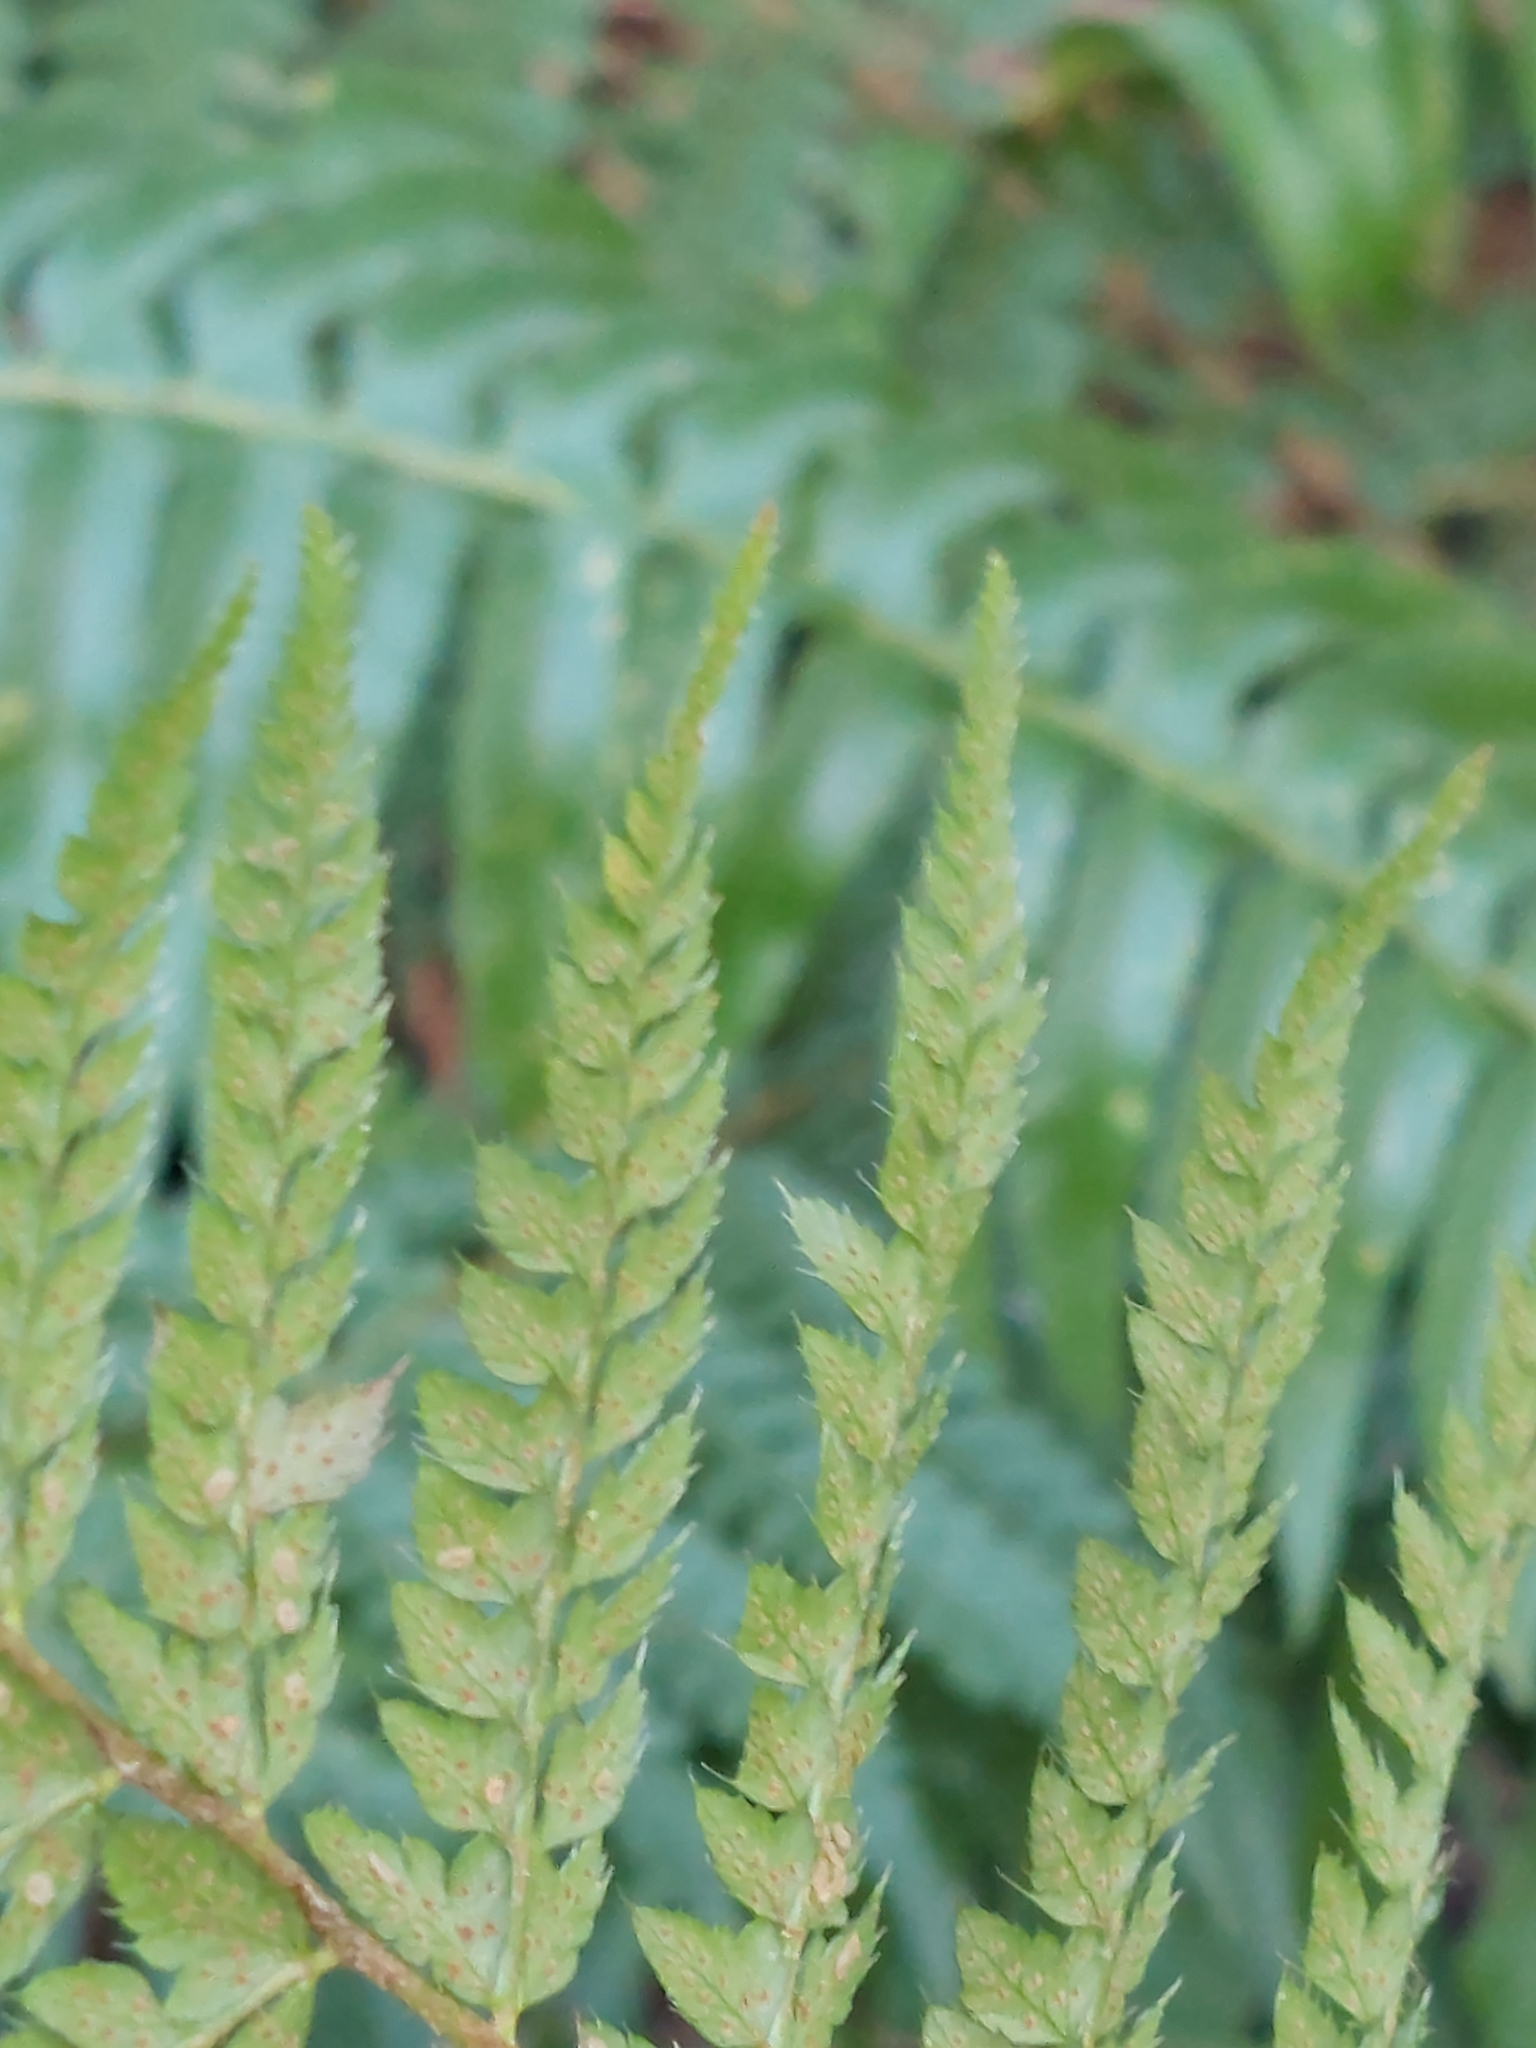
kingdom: Plantae
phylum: Tracheophyta
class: Polypodiopsida
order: Polypodiales
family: Dryopteridaceae
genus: Polystichum
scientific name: Polystichum setiferum
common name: Soft shield-fern
